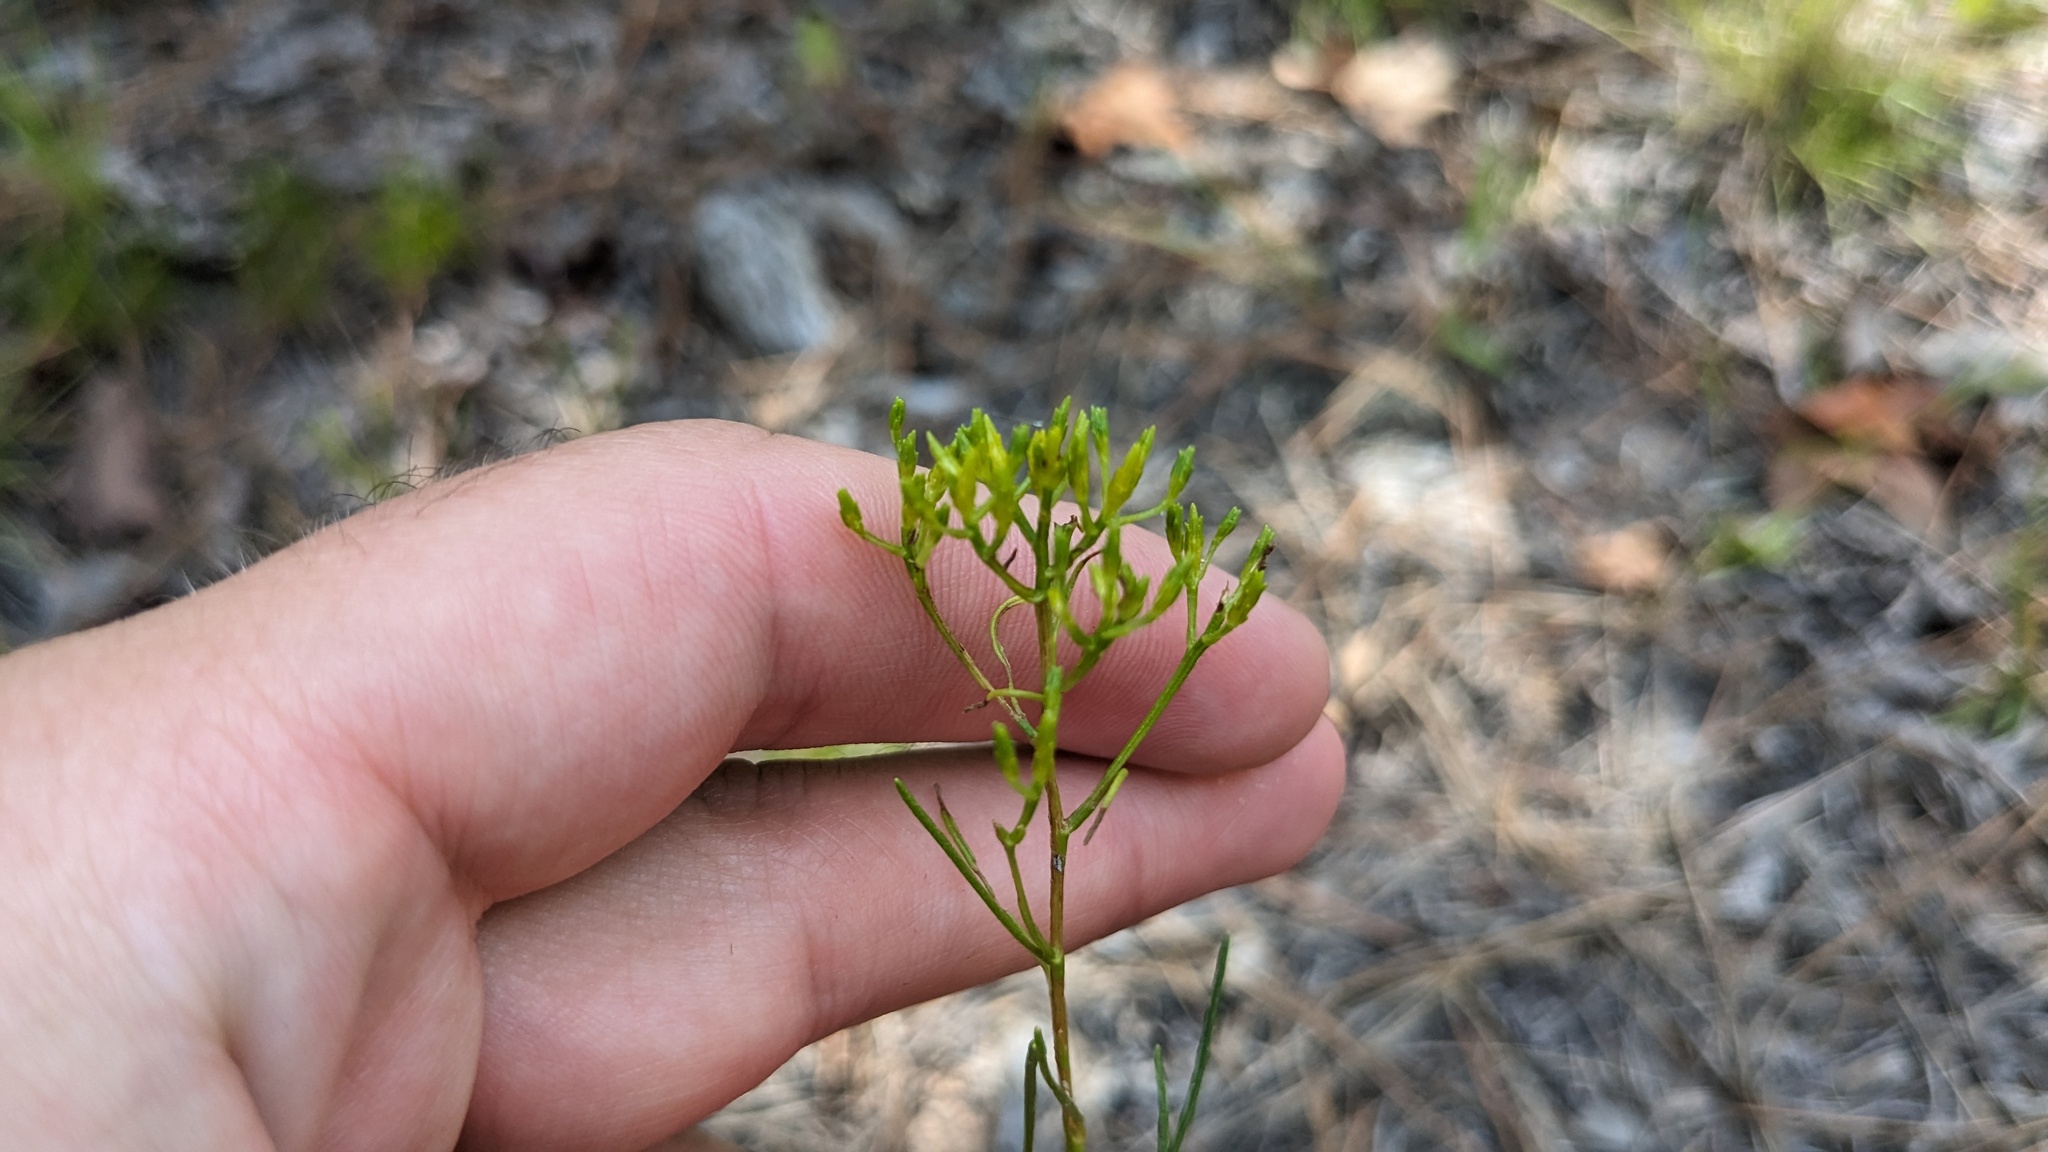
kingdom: Plantae
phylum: Tracheophyta
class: Magnoliopsida
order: Asterales
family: Asteraceae
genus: Bigelowia
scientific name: Bigelowia nuttallii
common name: Nuttall's rayless-goldenrod
